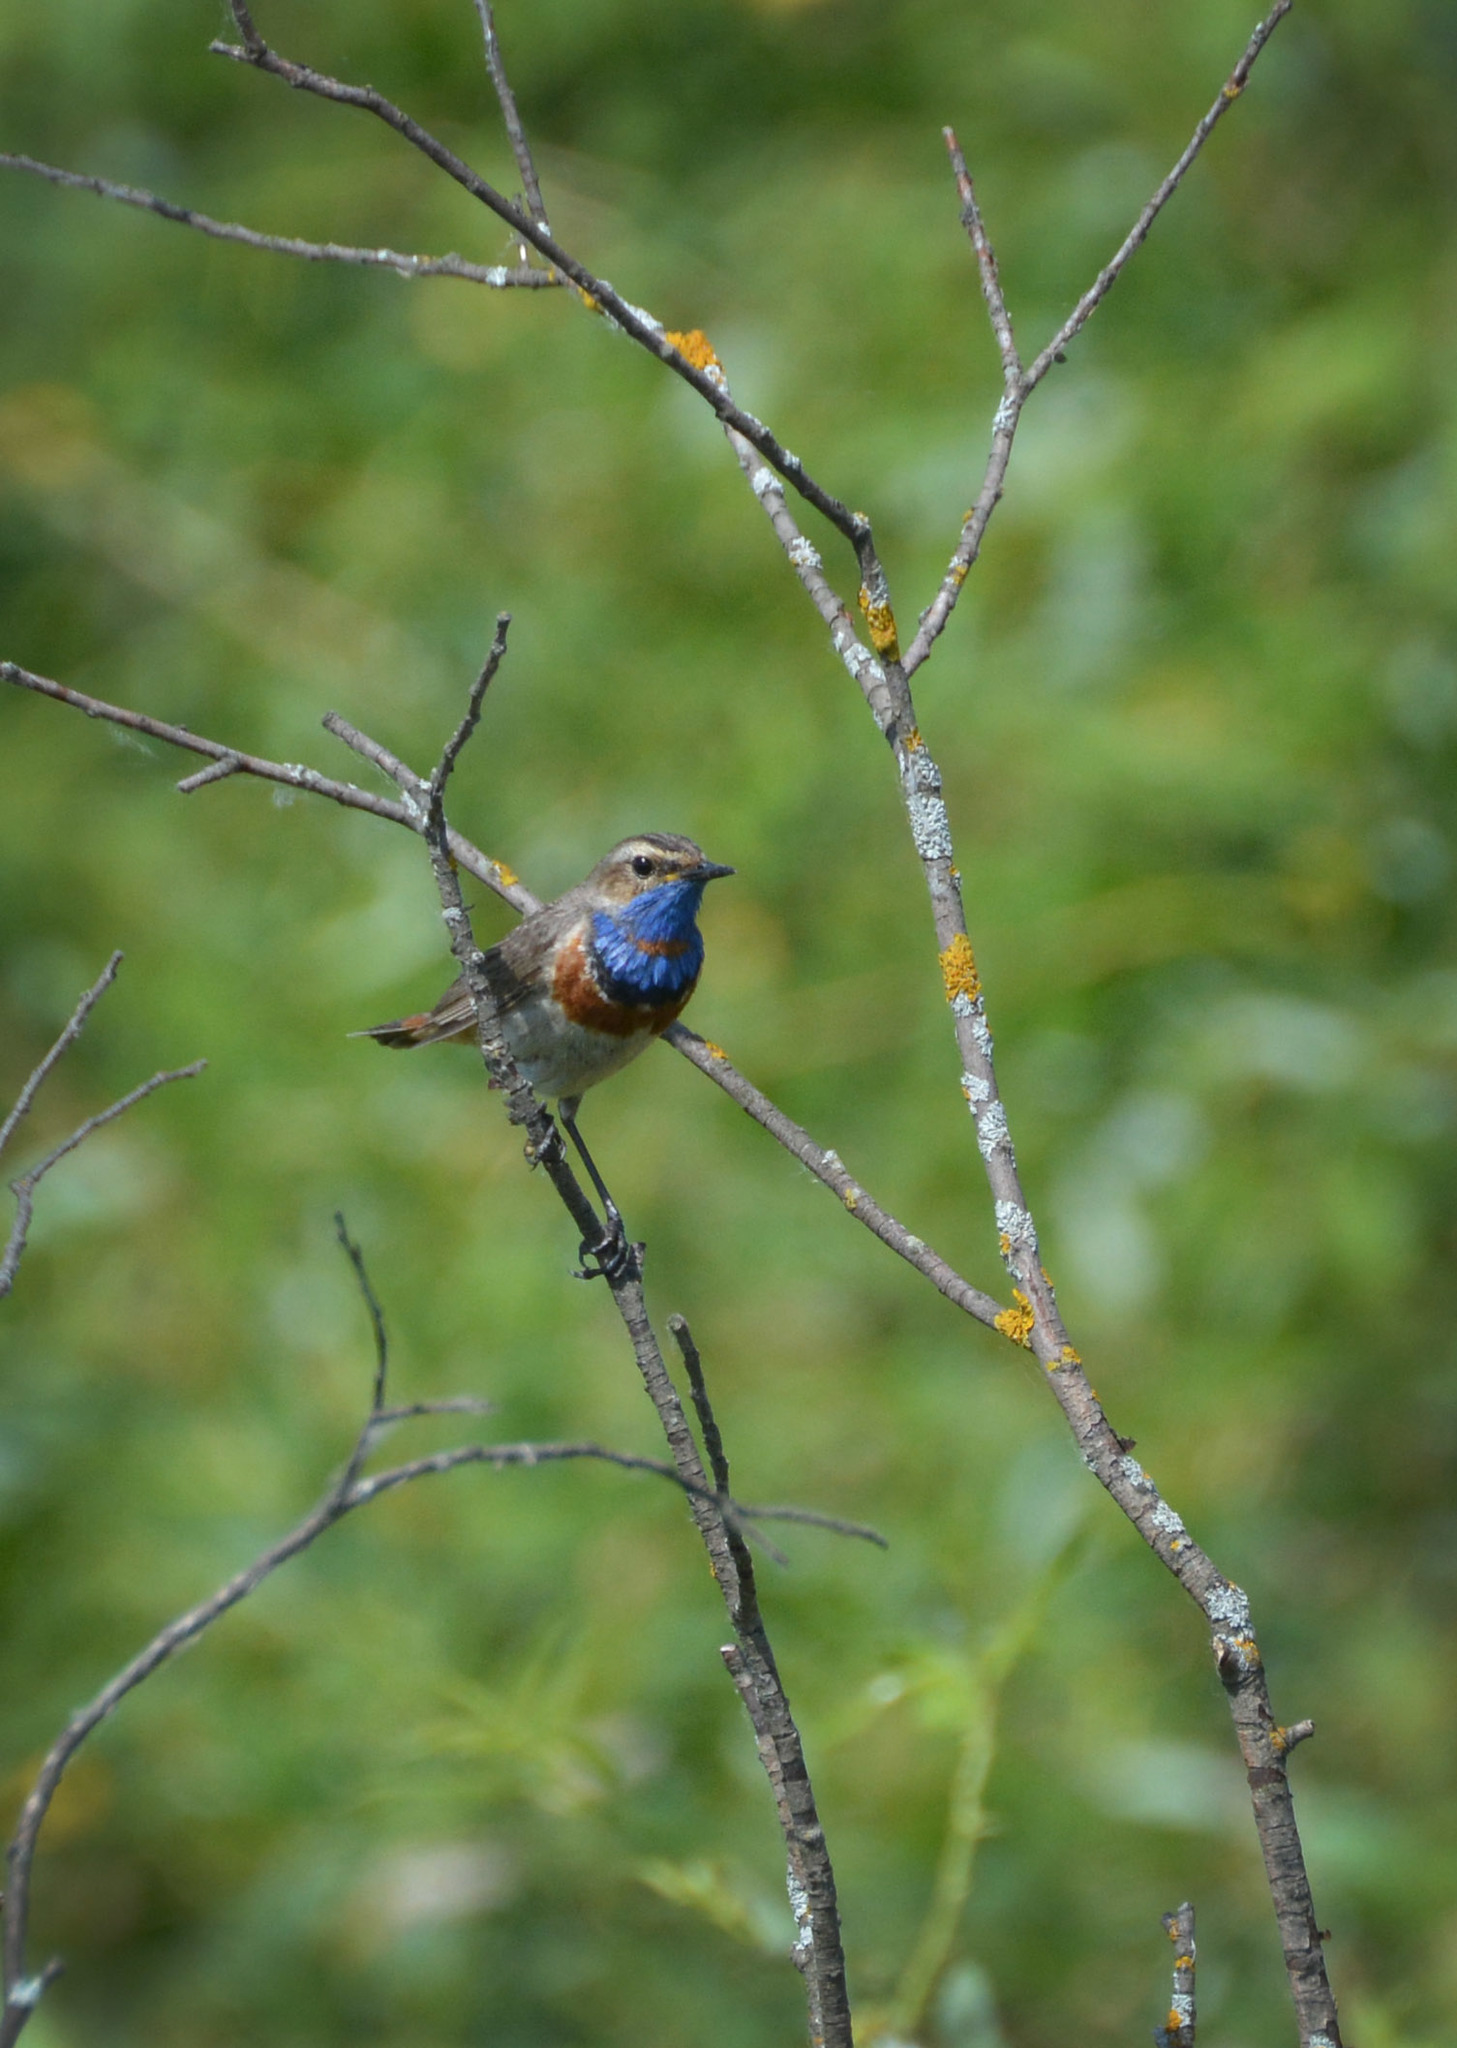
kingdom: Animalia
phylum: Chordata
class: Aves
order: Passeriformes
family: Muscicapidae
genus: Luscinia
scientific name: Luscinia svecica
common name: Bluethroat
